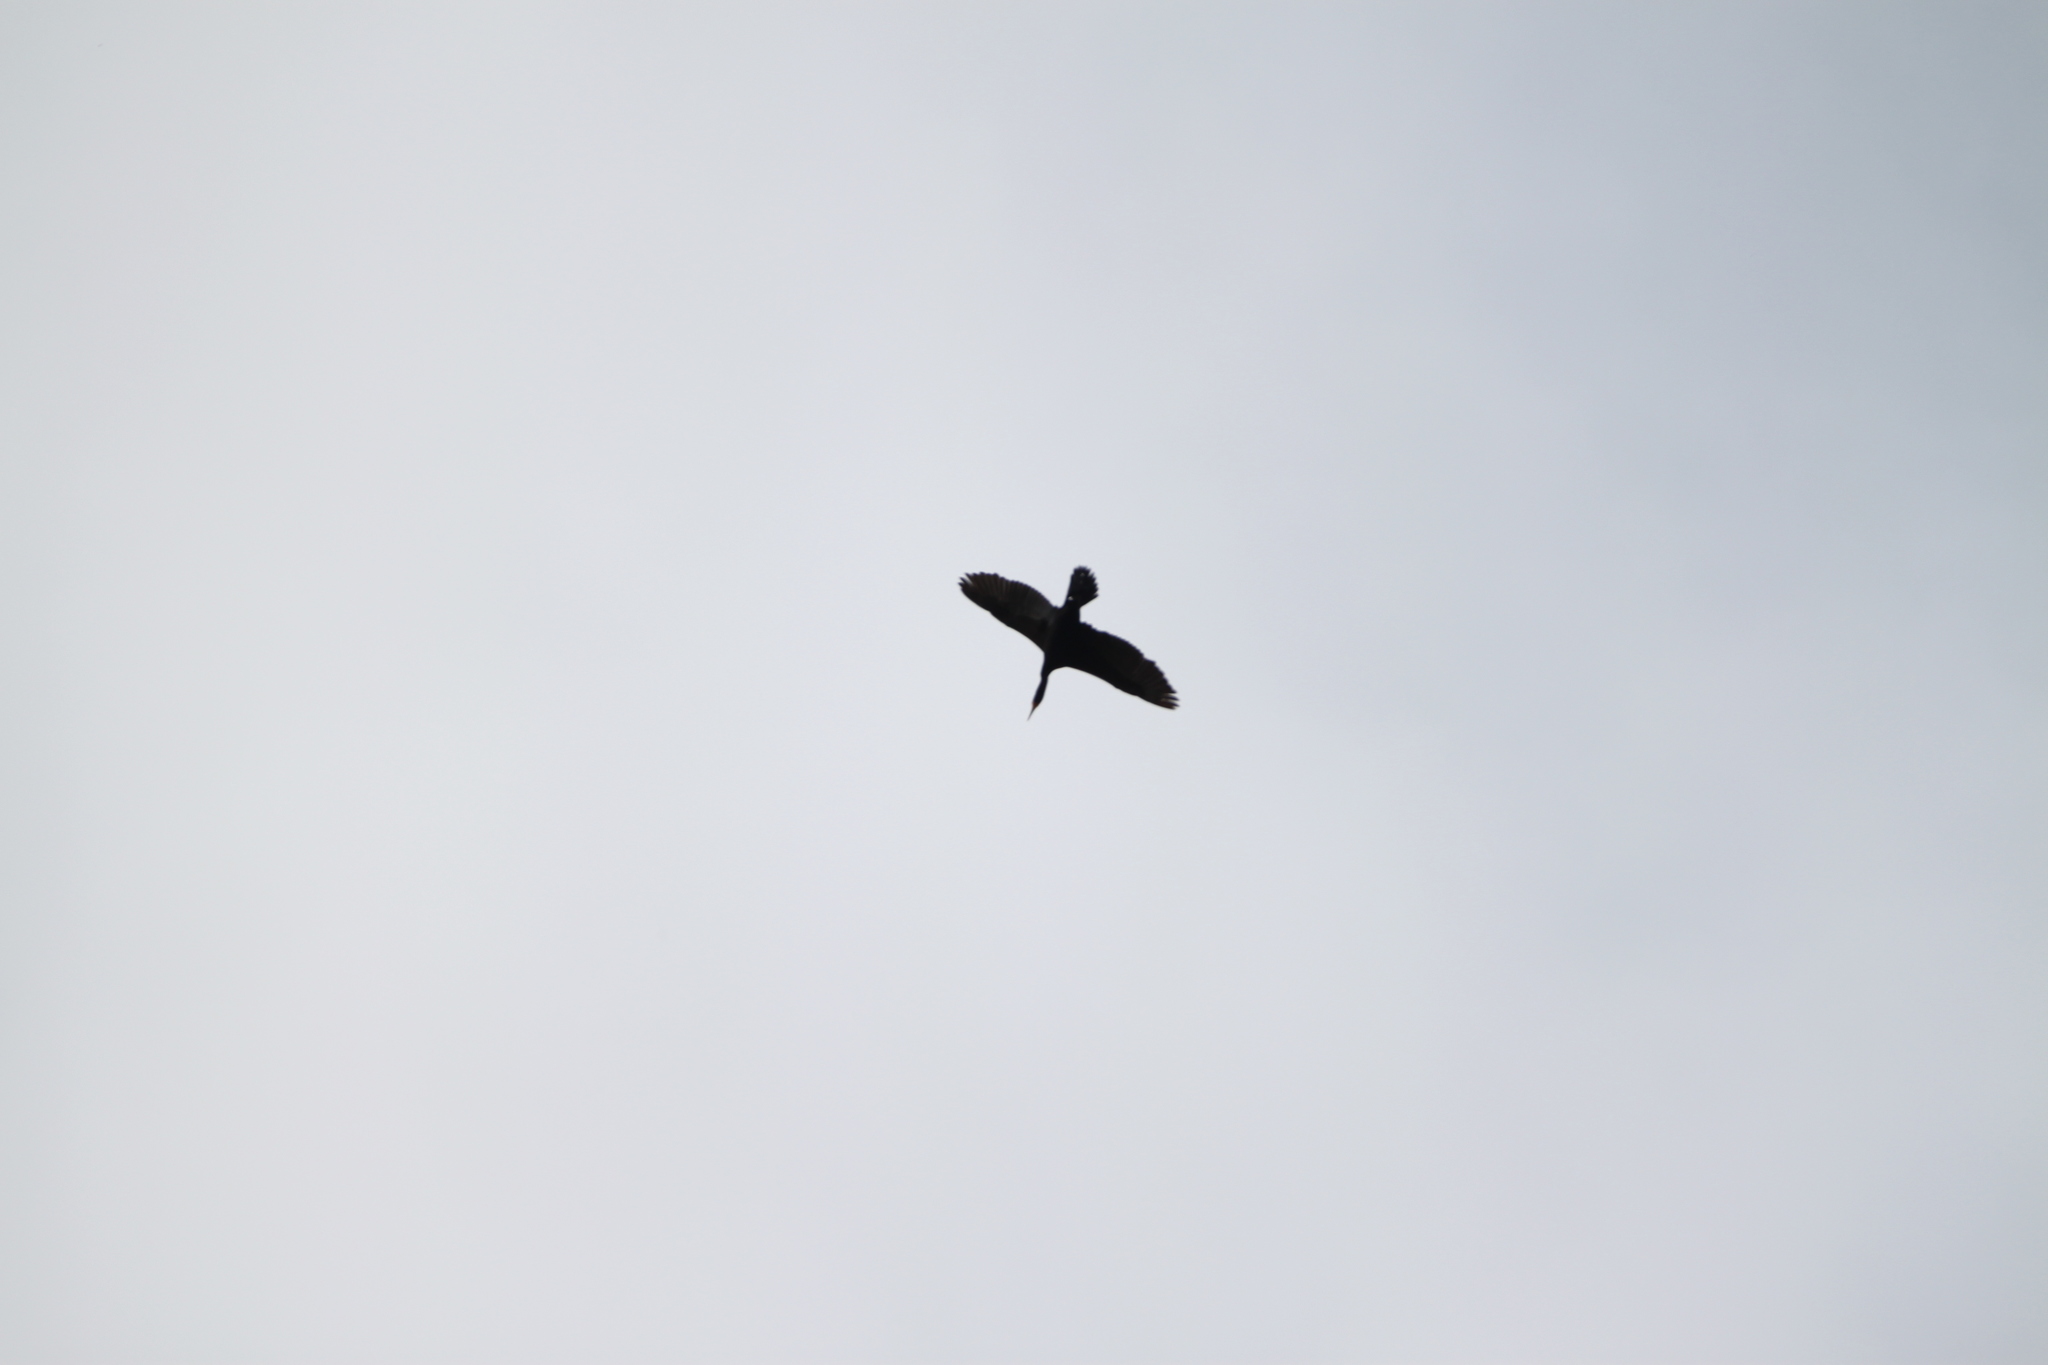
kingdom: Animalia
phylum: Chordata
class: Aves
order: Suliformes
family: Phalacrocoracidae
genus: Phalacrocorax
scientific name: Phalacrocorax auritus
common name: Double-crested cormorant
